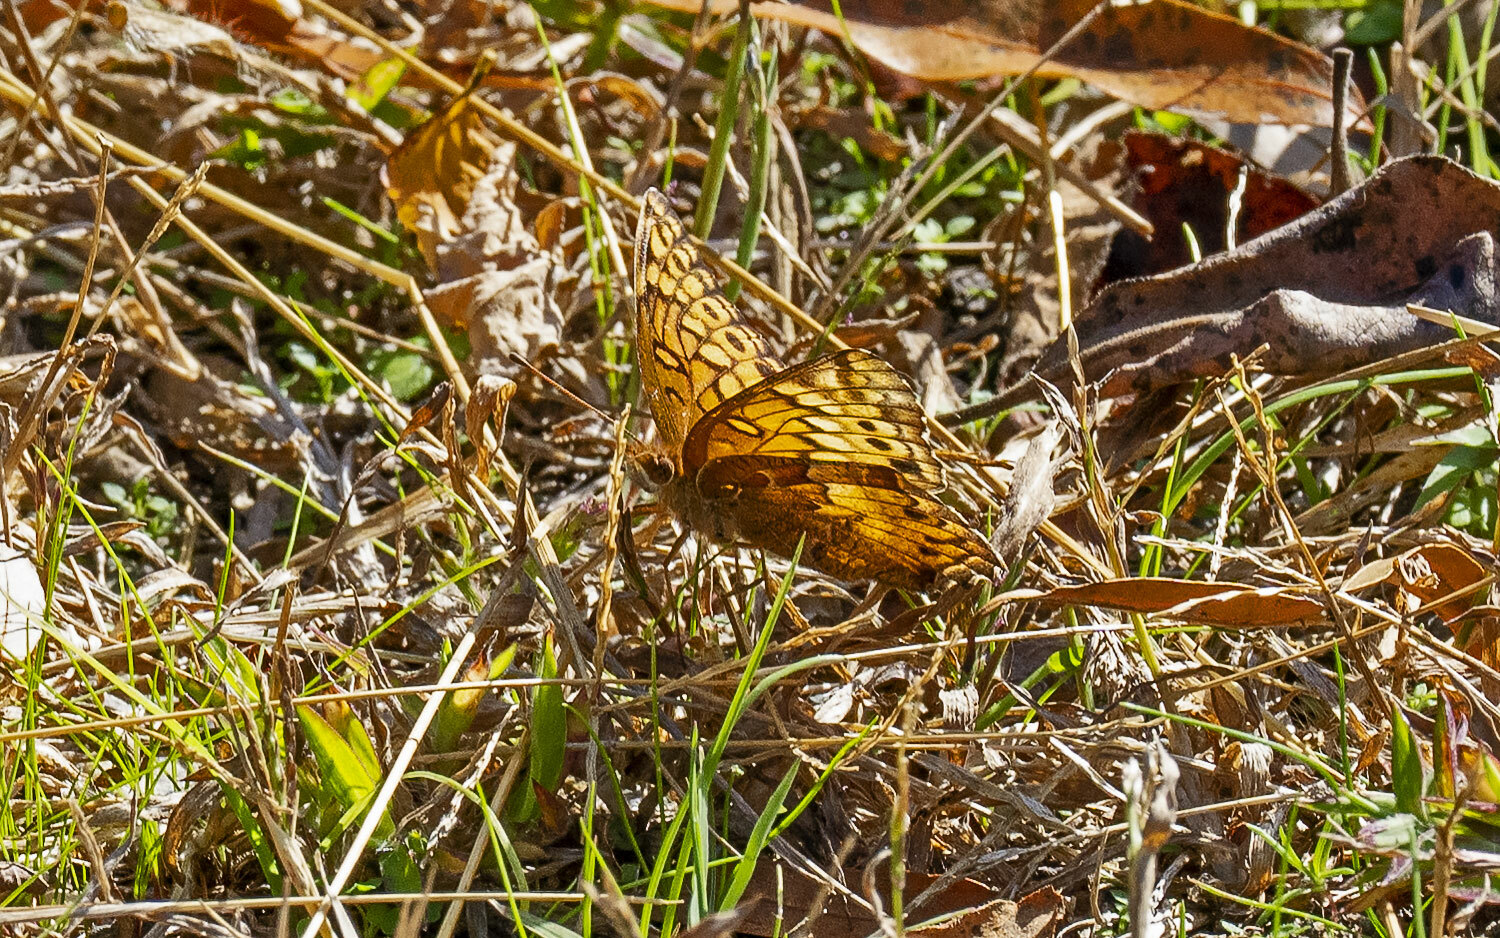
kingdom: Animalia
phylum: Arthropoda
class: Insecta
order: Lepidoptera
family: Nymphalidae
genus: Euptoieta
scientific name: Euptoieta claudia
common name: Variegated fritillary
